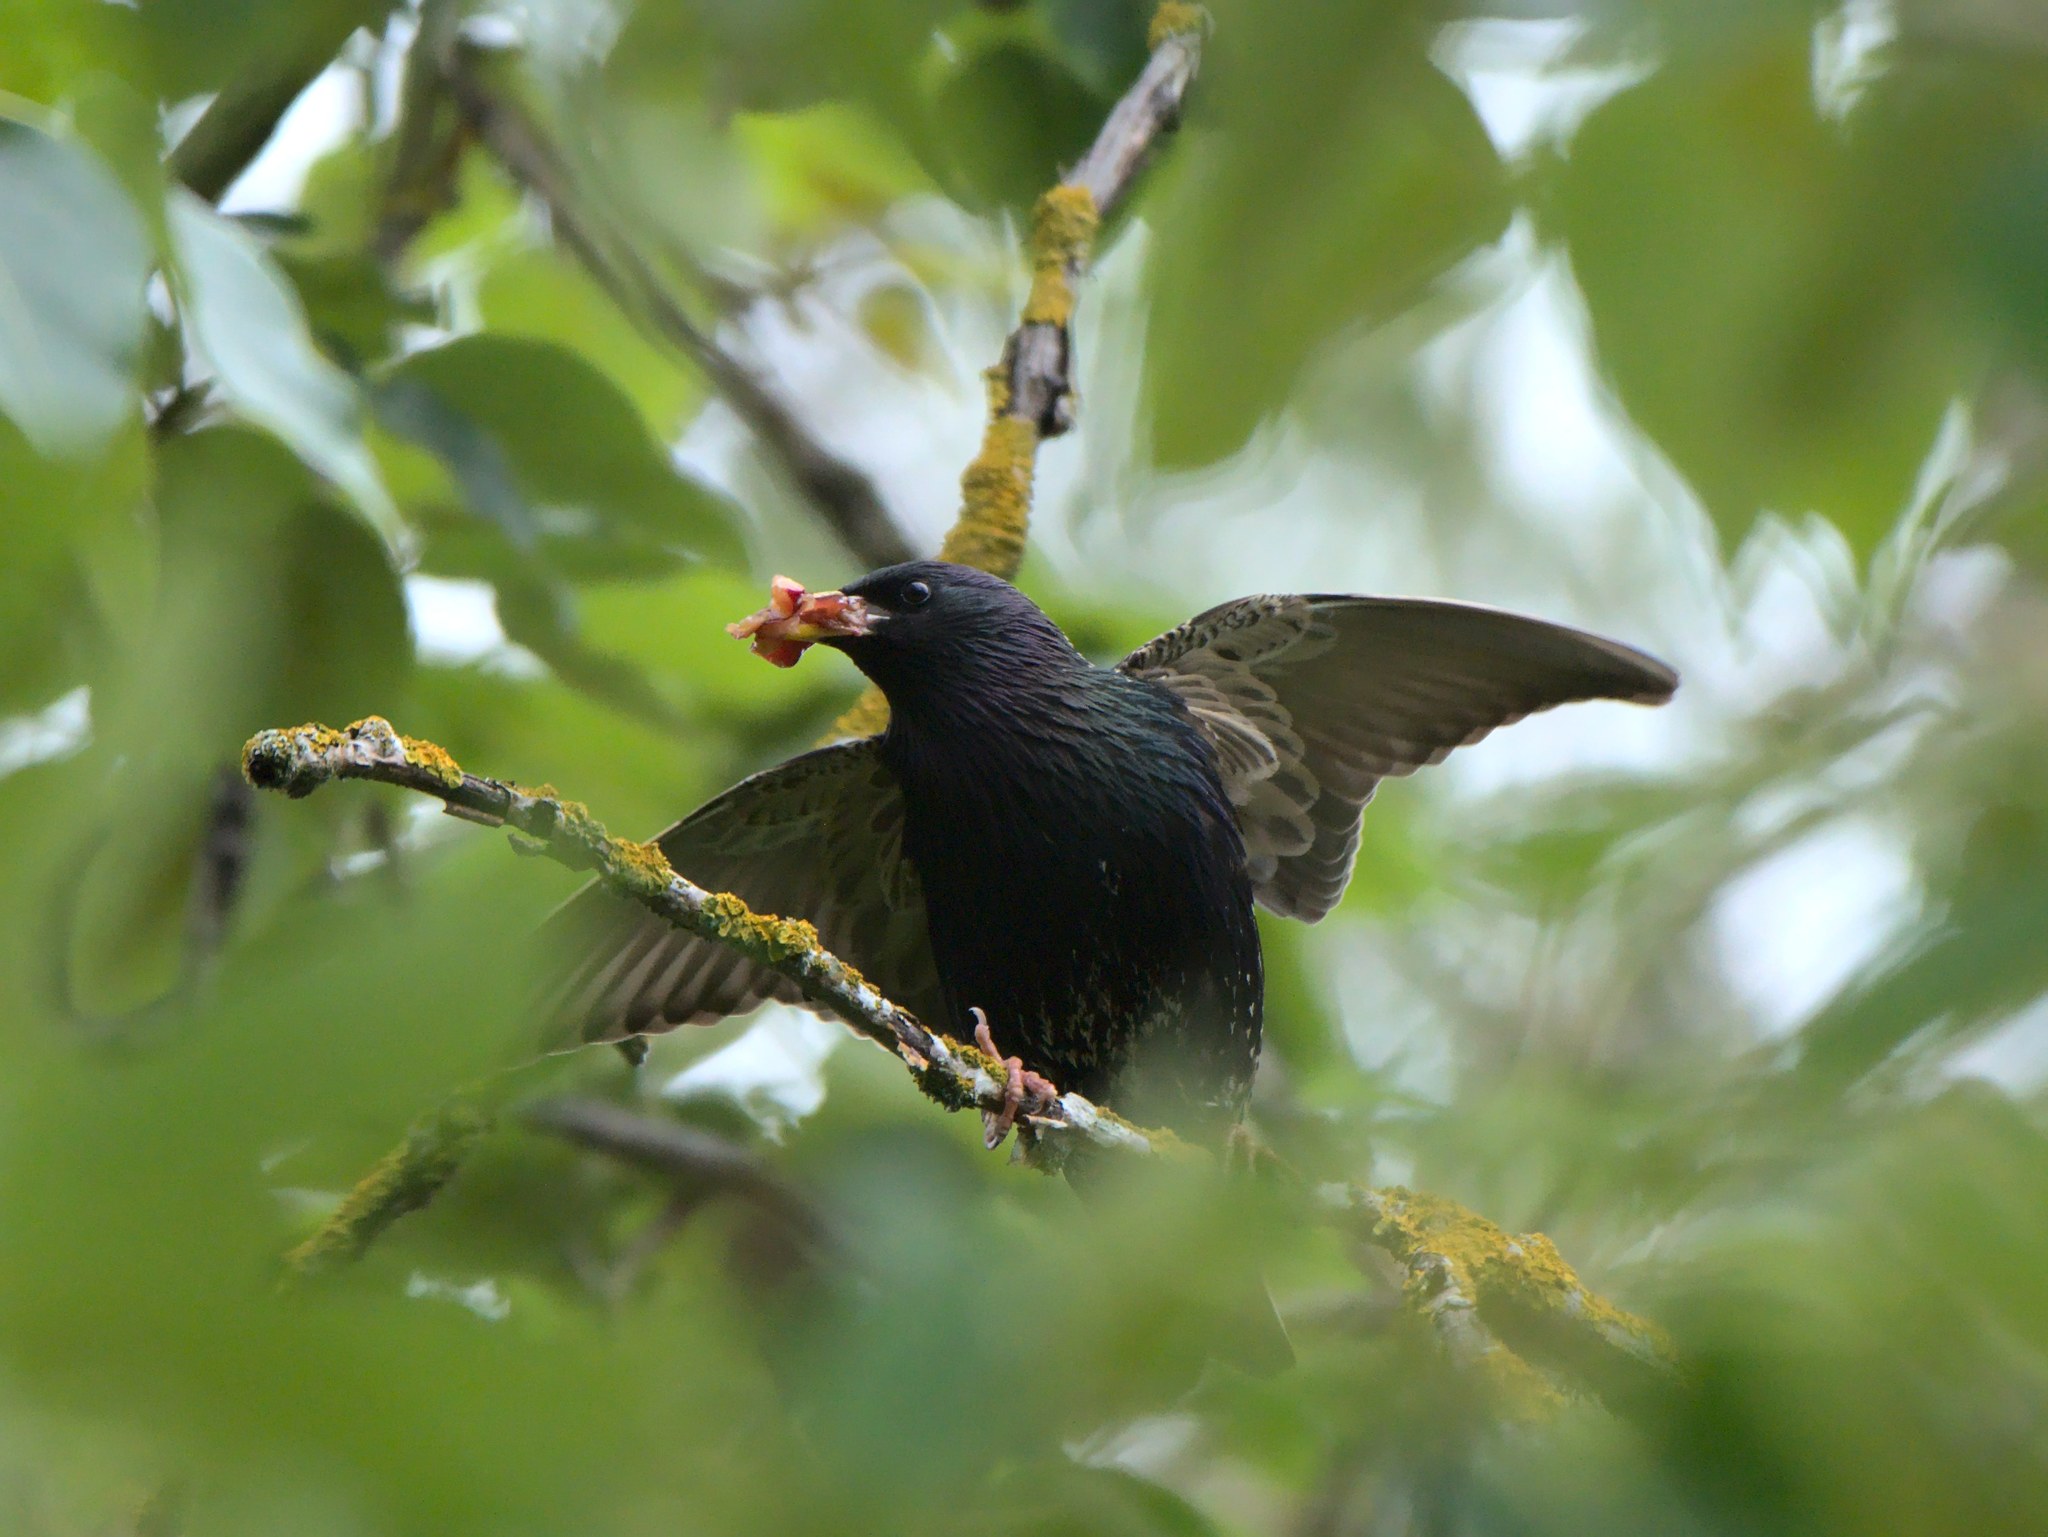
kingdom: Animalia
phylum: Chordata
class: Aves
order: Passeriformes
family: Sturnidae
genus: Sturnus
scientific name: Sturnus vulgaris
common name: Common starling
